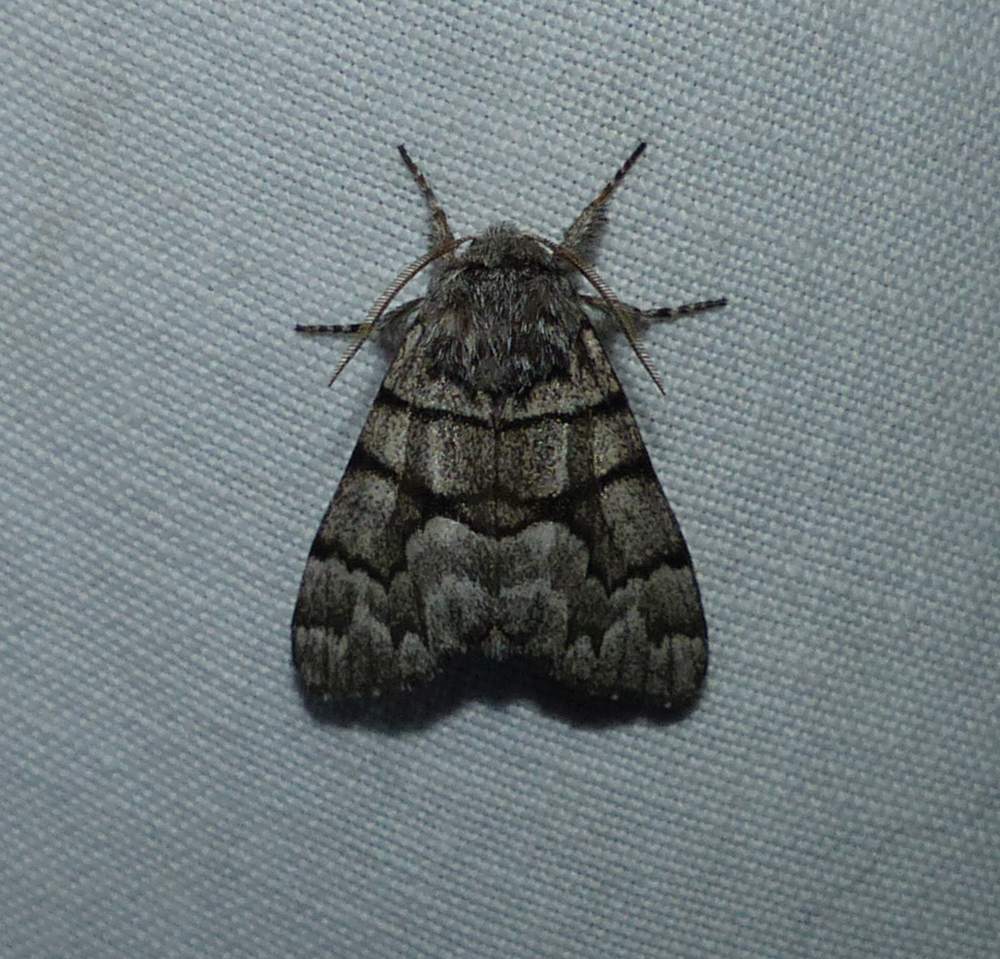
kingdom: Animalia
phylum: Arthropoda
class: Insecta
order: Lepidoptera
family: Noctuidae
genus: Panthea
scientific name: Panthea furcilla
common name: Eastern panthea moth
